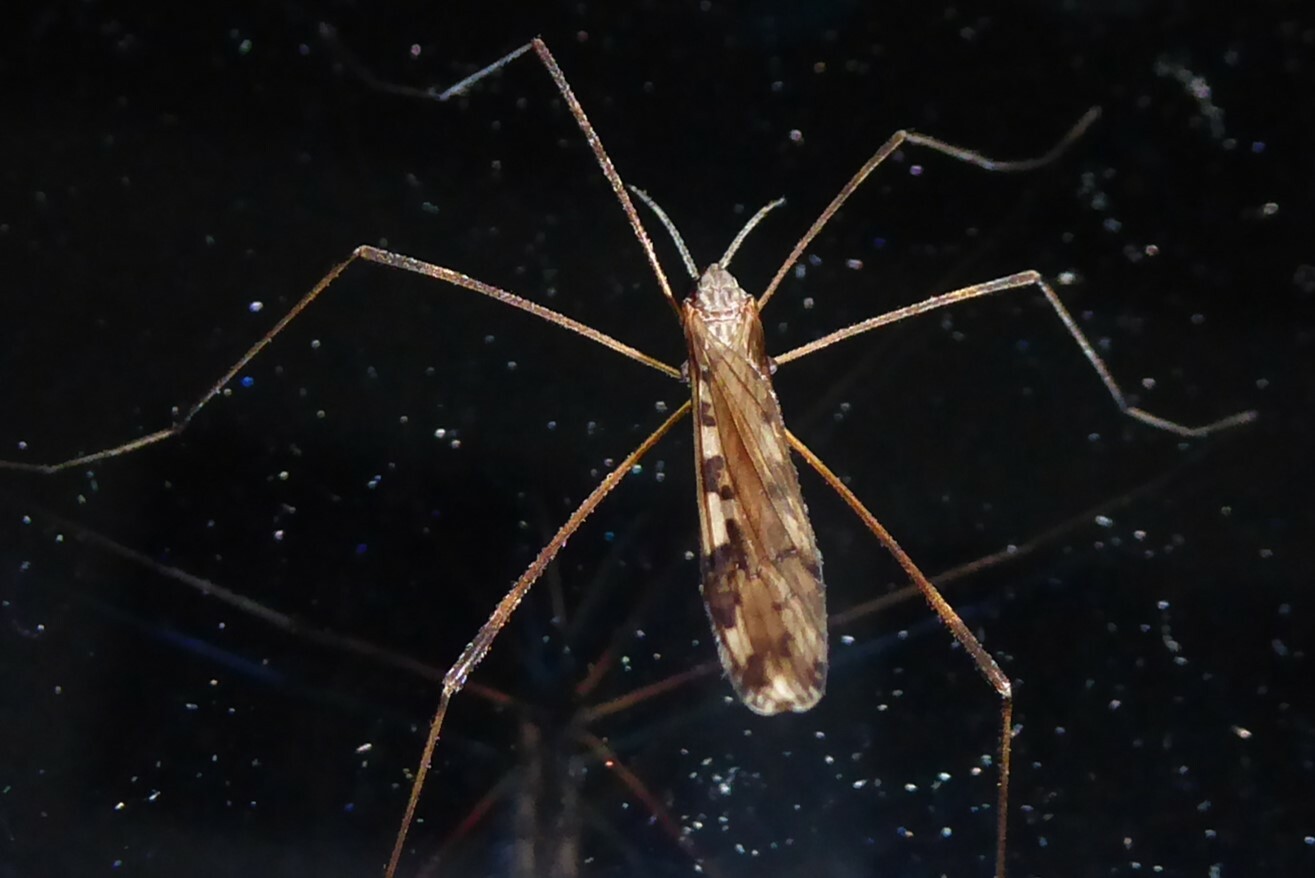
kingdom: Animalia
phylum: Arthropoda
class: Insecta
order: Diptera
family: Limoniidae
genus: Paralimnophila
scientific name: Paralimnophila skusei
